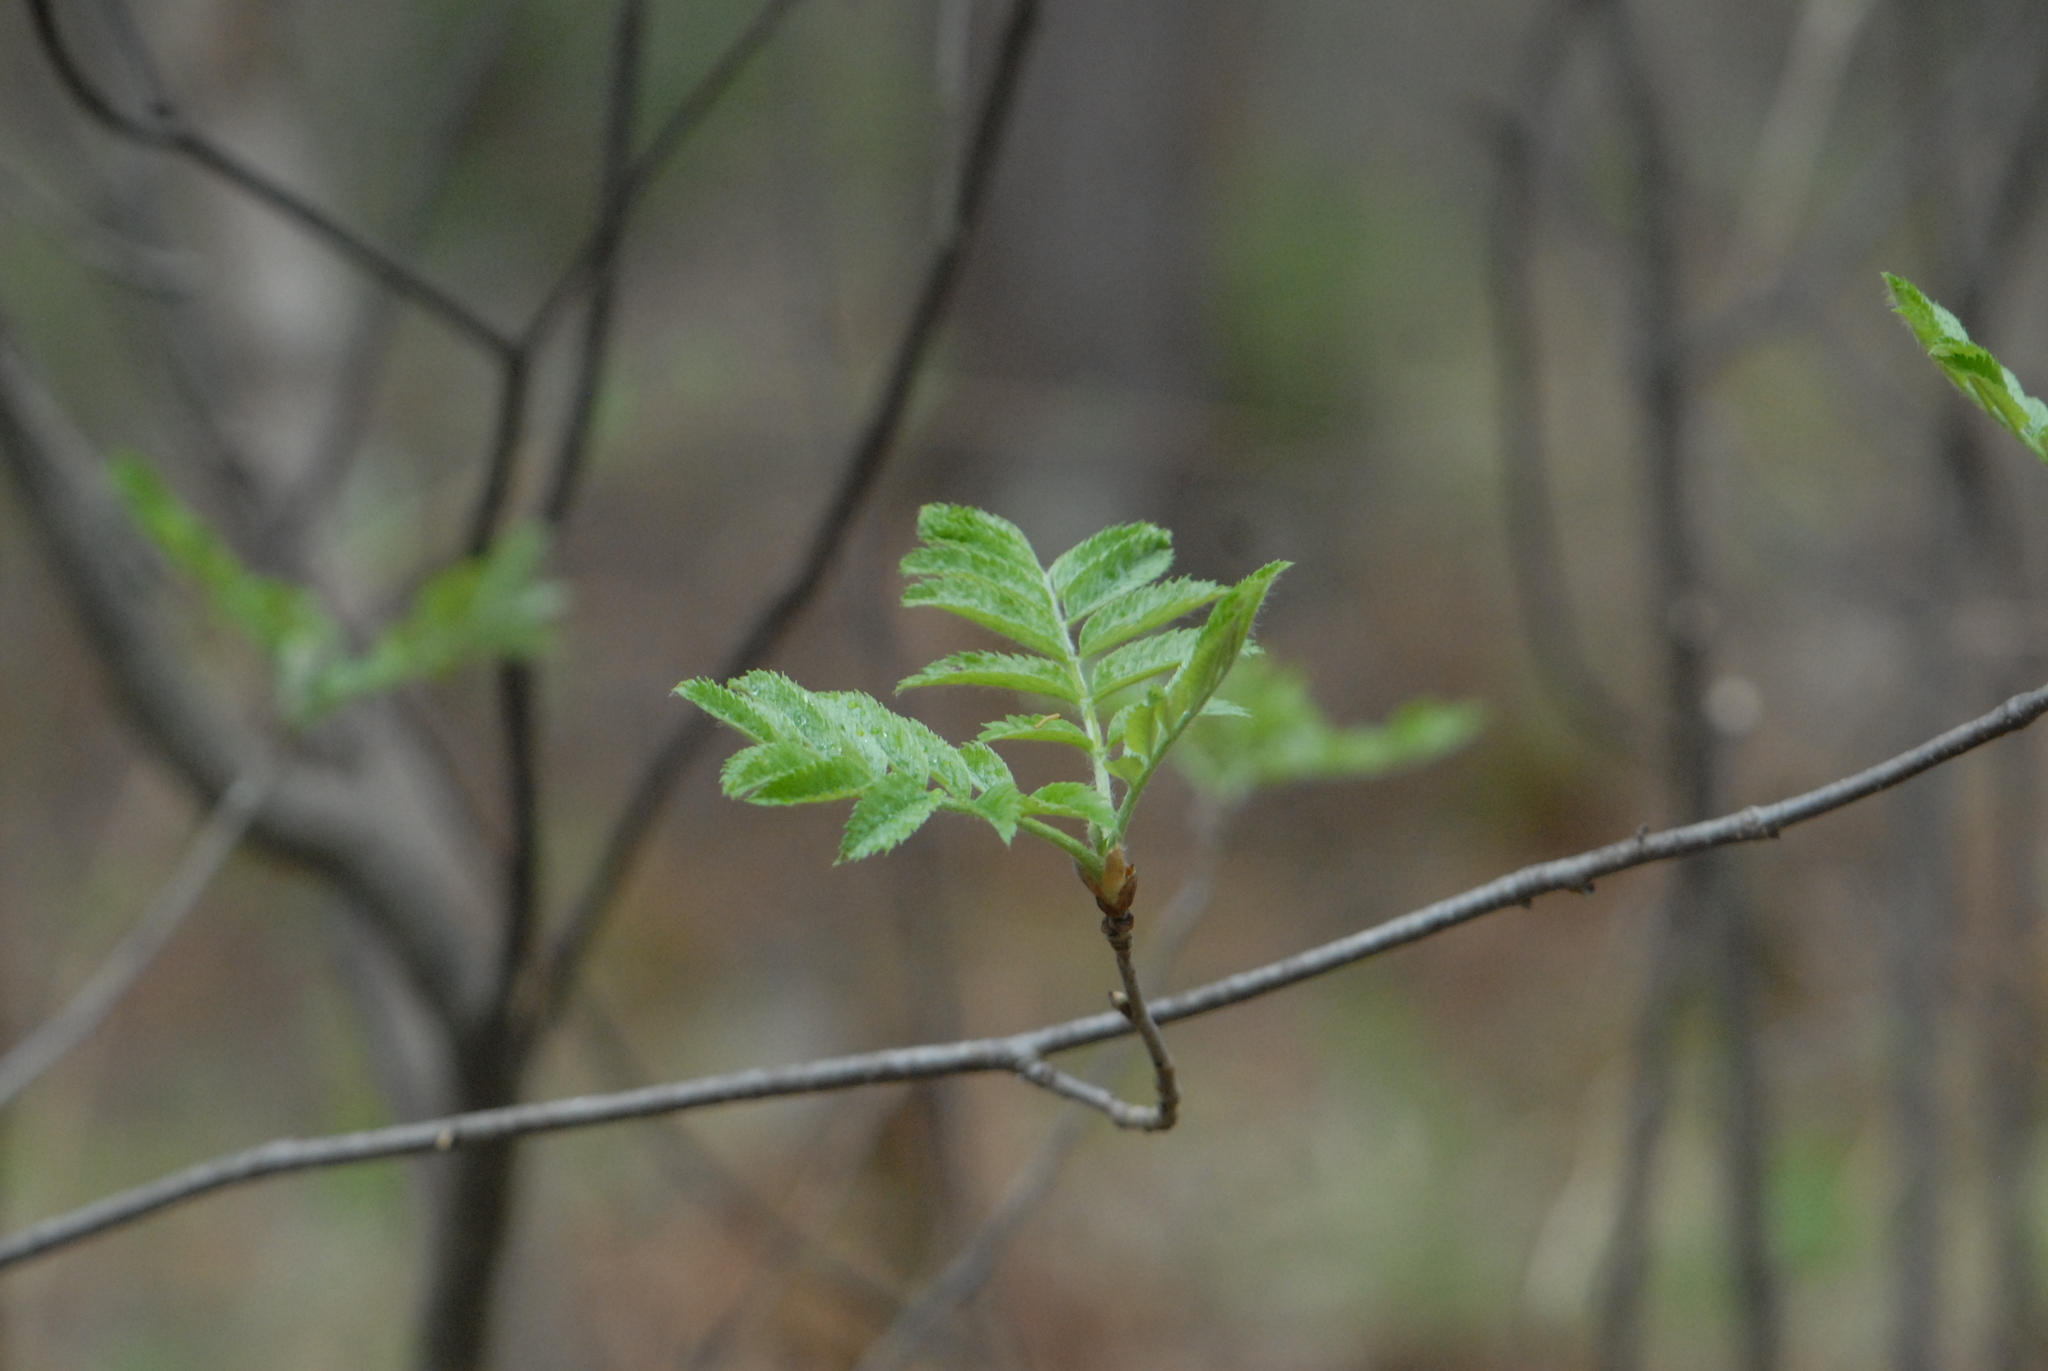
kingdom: Plantae
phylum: Tracheophyta
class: Magnoliopsida
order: Rosales
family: Rosaceae
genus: Sorbus
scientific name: Sorbus aucuparia
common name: Rowan
